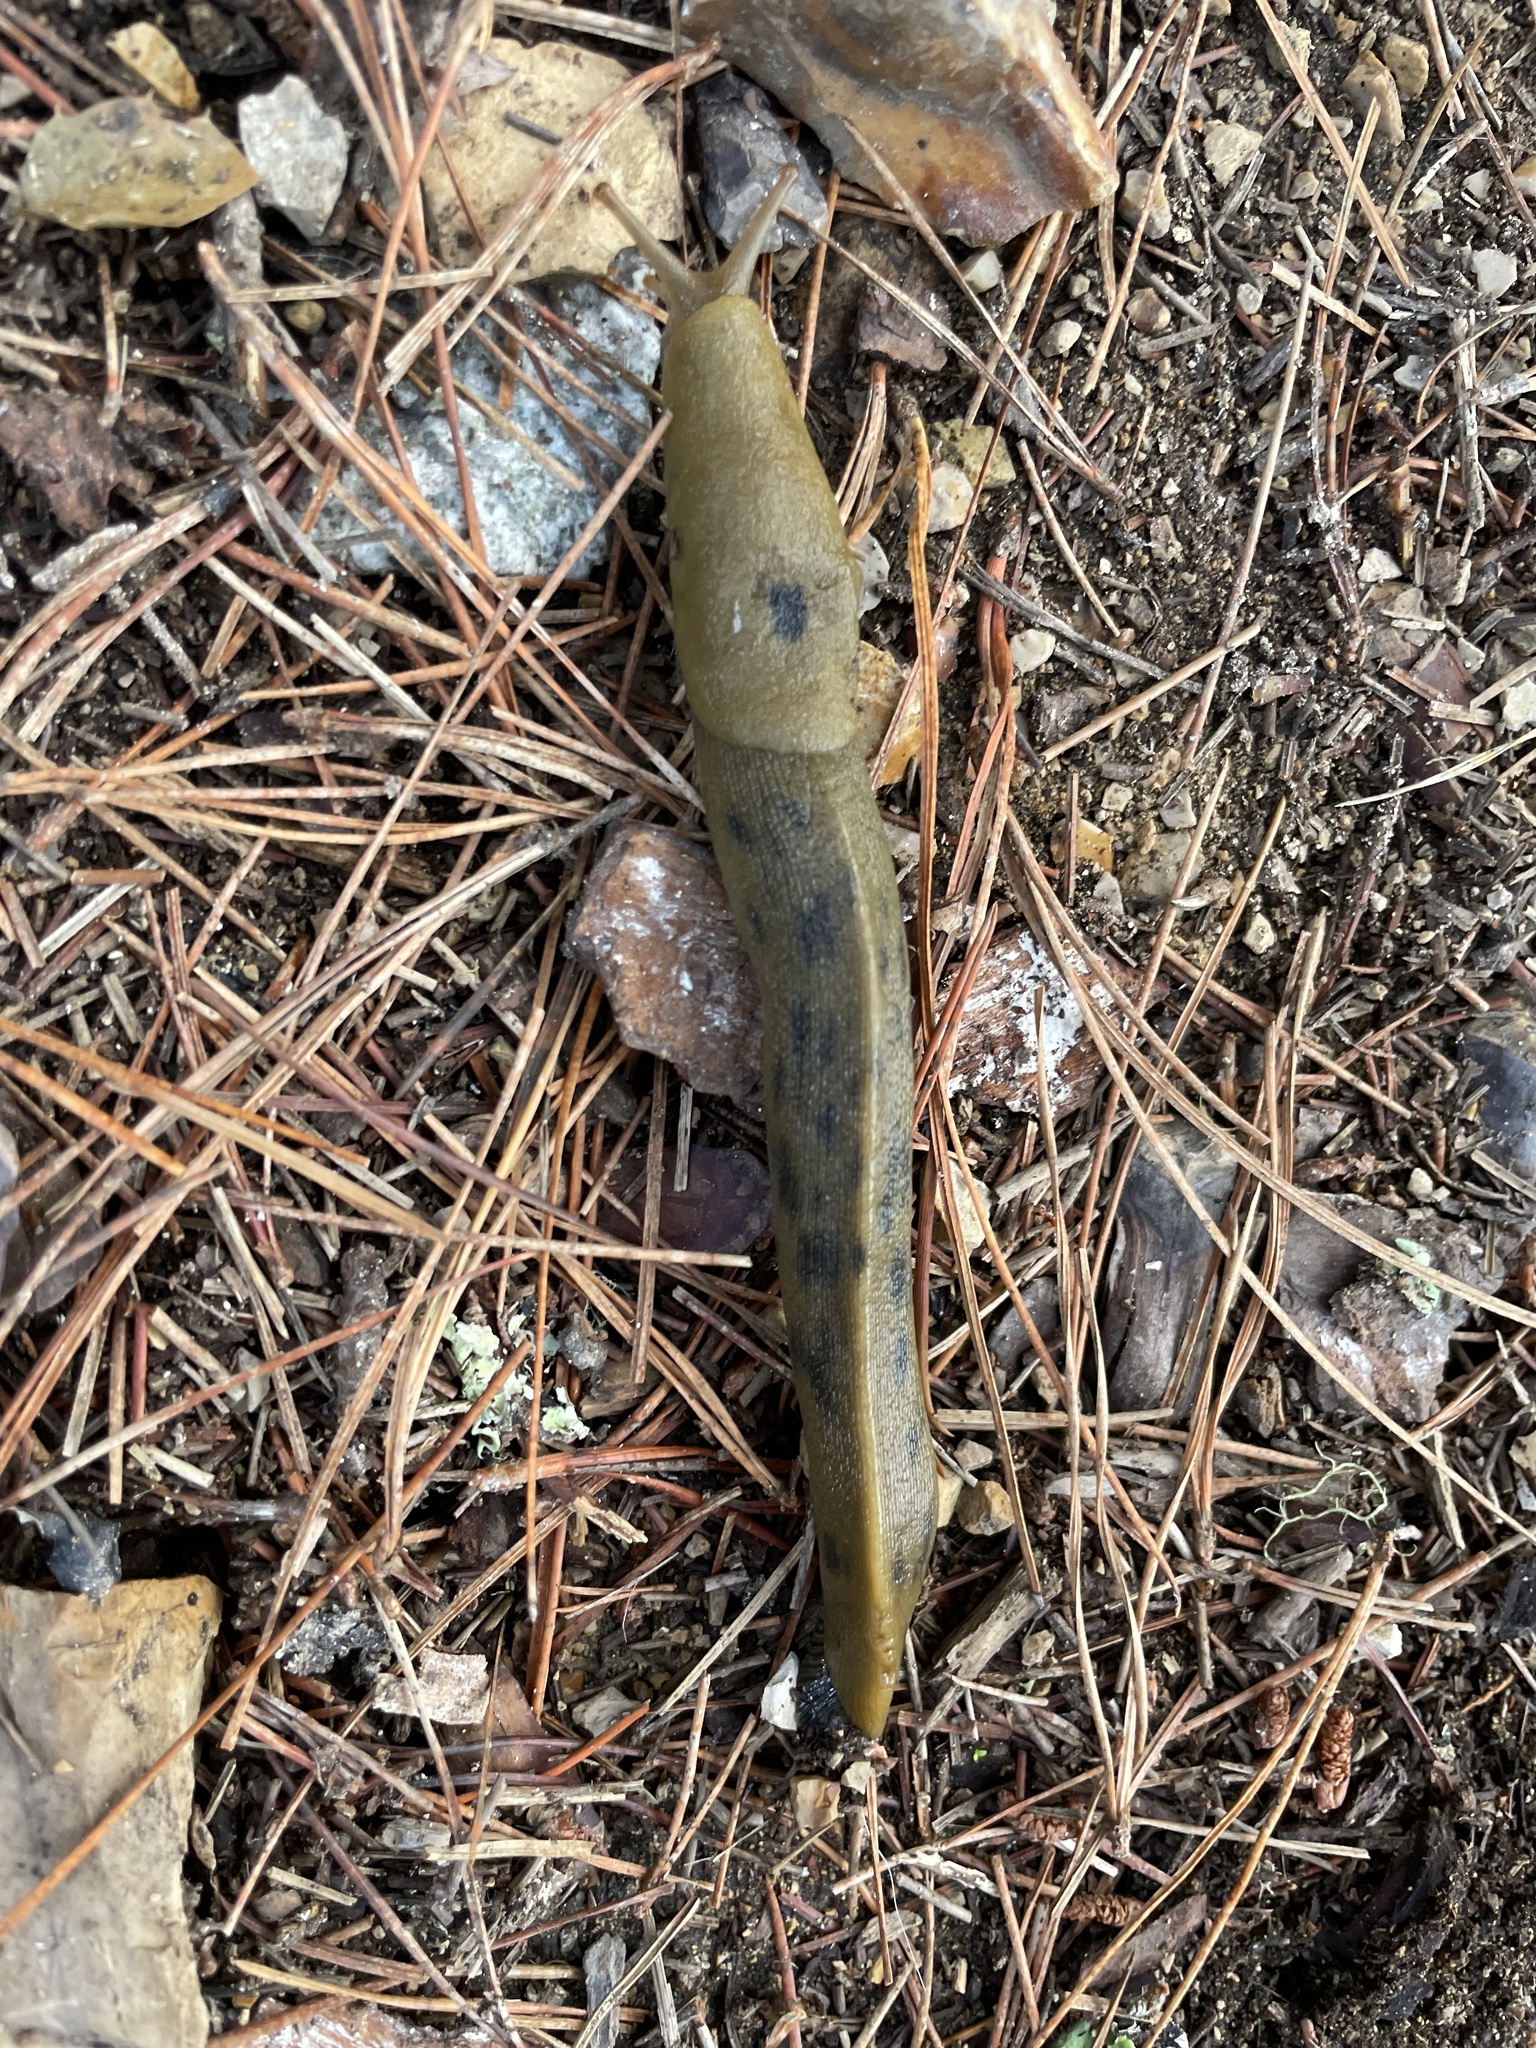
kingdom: Animalia
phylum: Mollusca
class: Gastropoda
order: Stylommatophora
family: Ariolimacidae
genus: Ariolimax
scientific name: Ariolimax buttoni
